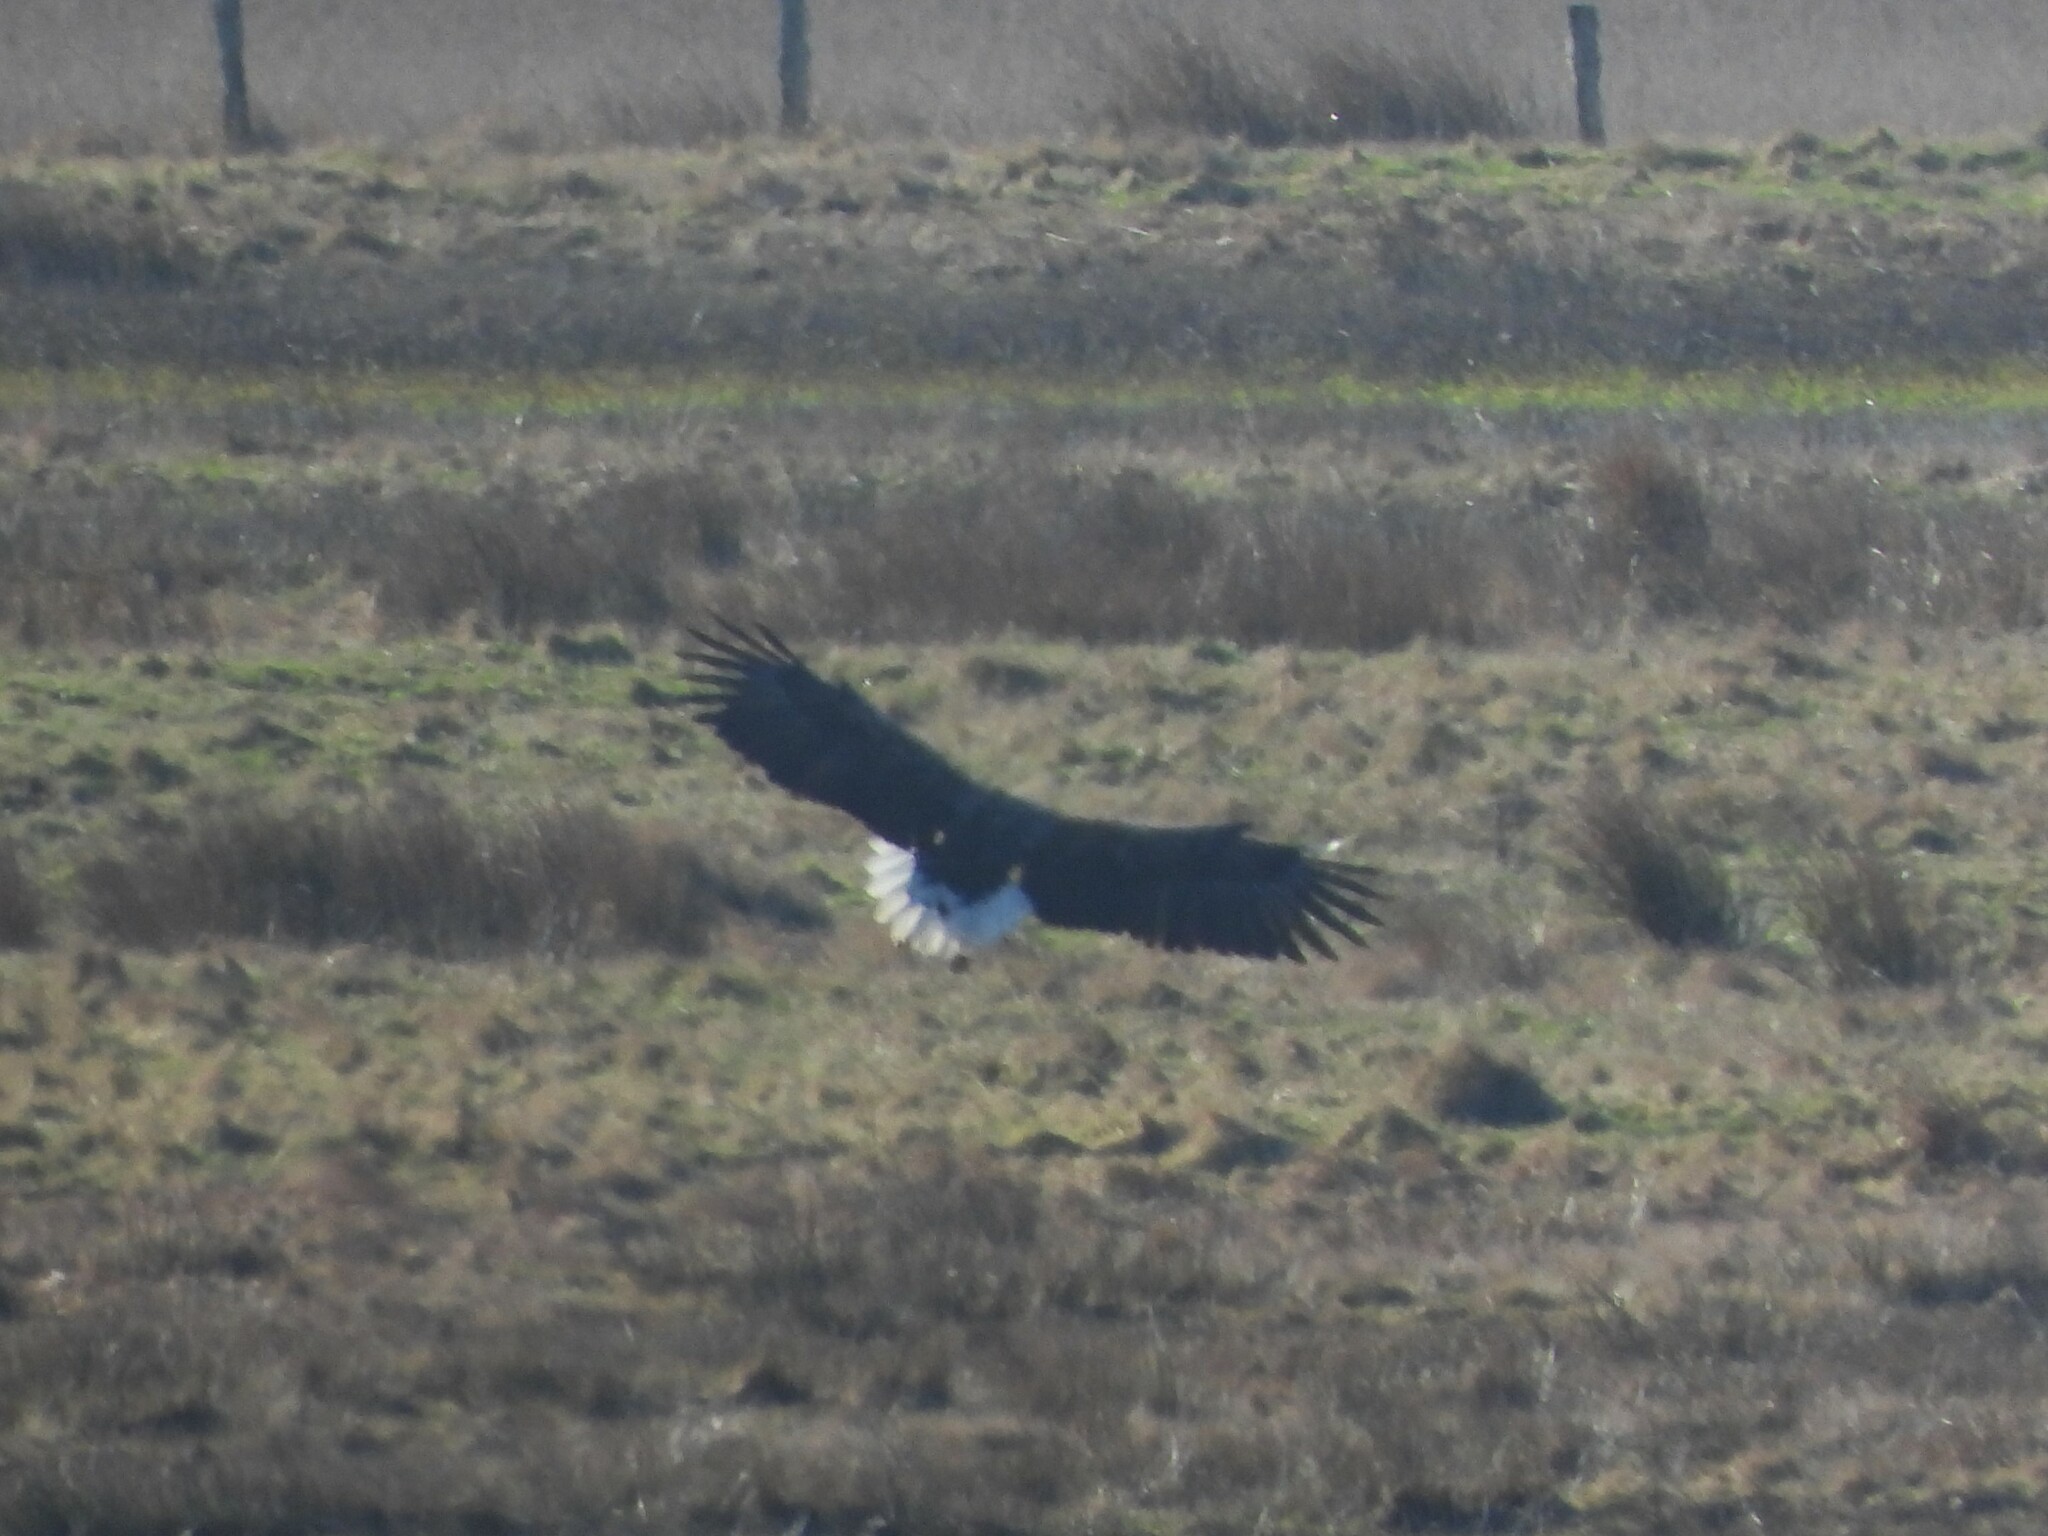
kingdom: Animalia
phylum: Chordata
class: Aves
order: Accipitriformes
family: Accipitridae
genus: Haliaeetus
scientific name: Haliaeetus albicilla
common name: White-tailed eagle
